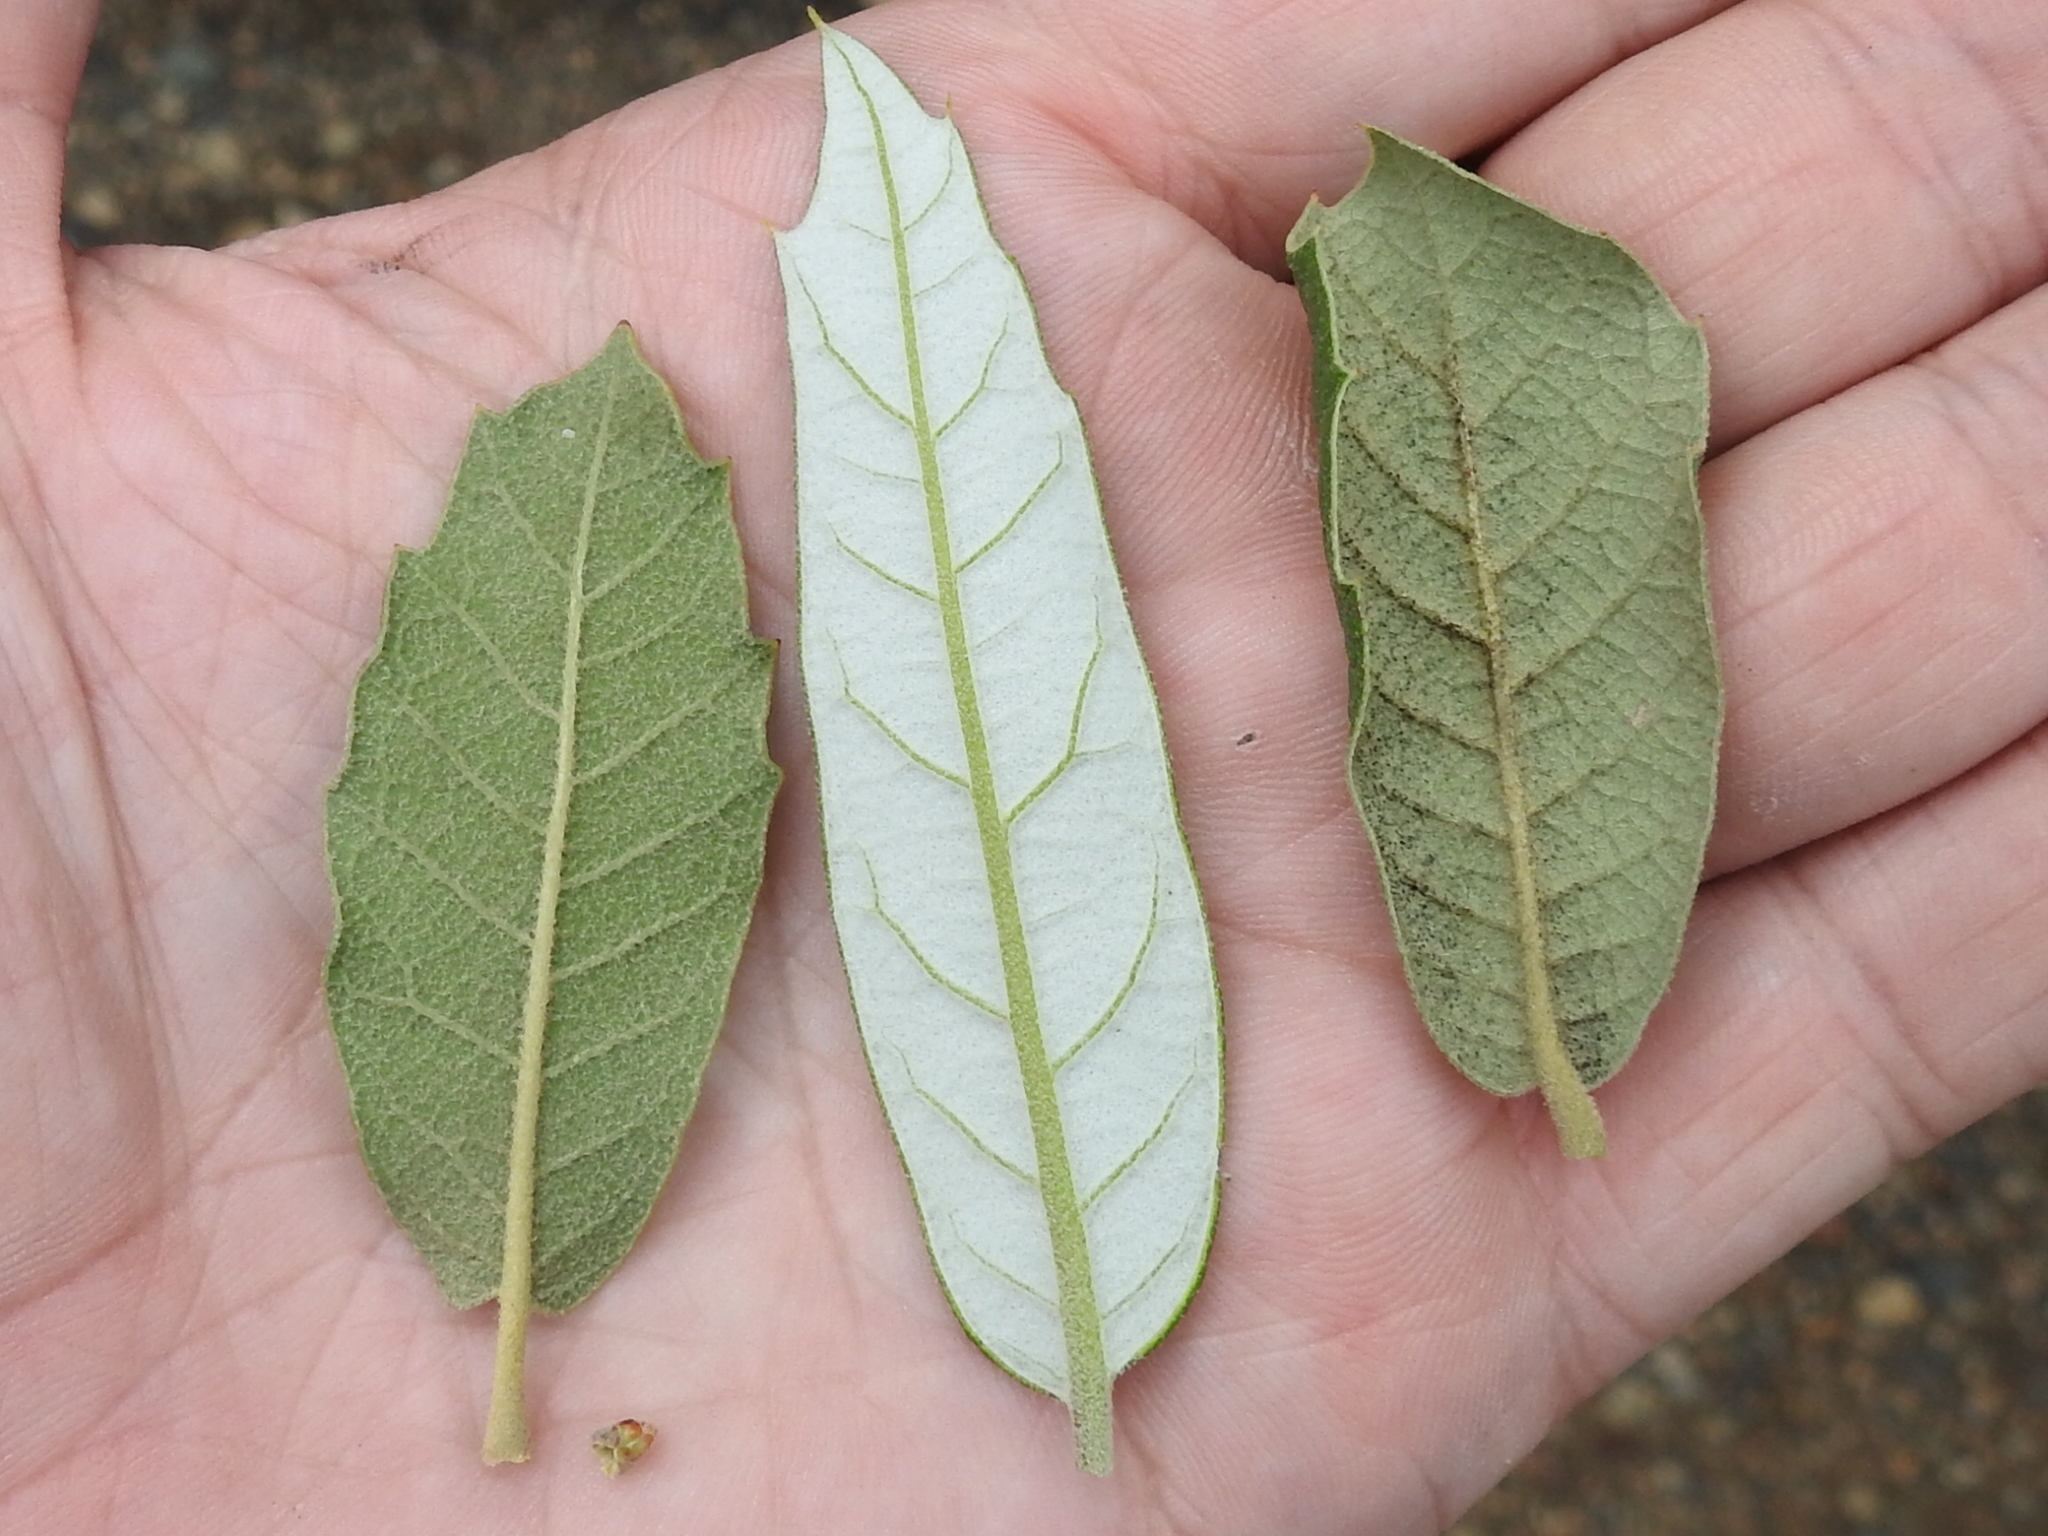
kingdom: Plantae
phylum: Tracheophyta
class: Magnoliopsida
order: Fagales
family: Fagaceae
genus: Quercus
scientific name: Quercus rugosa
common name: Netleaf oak
